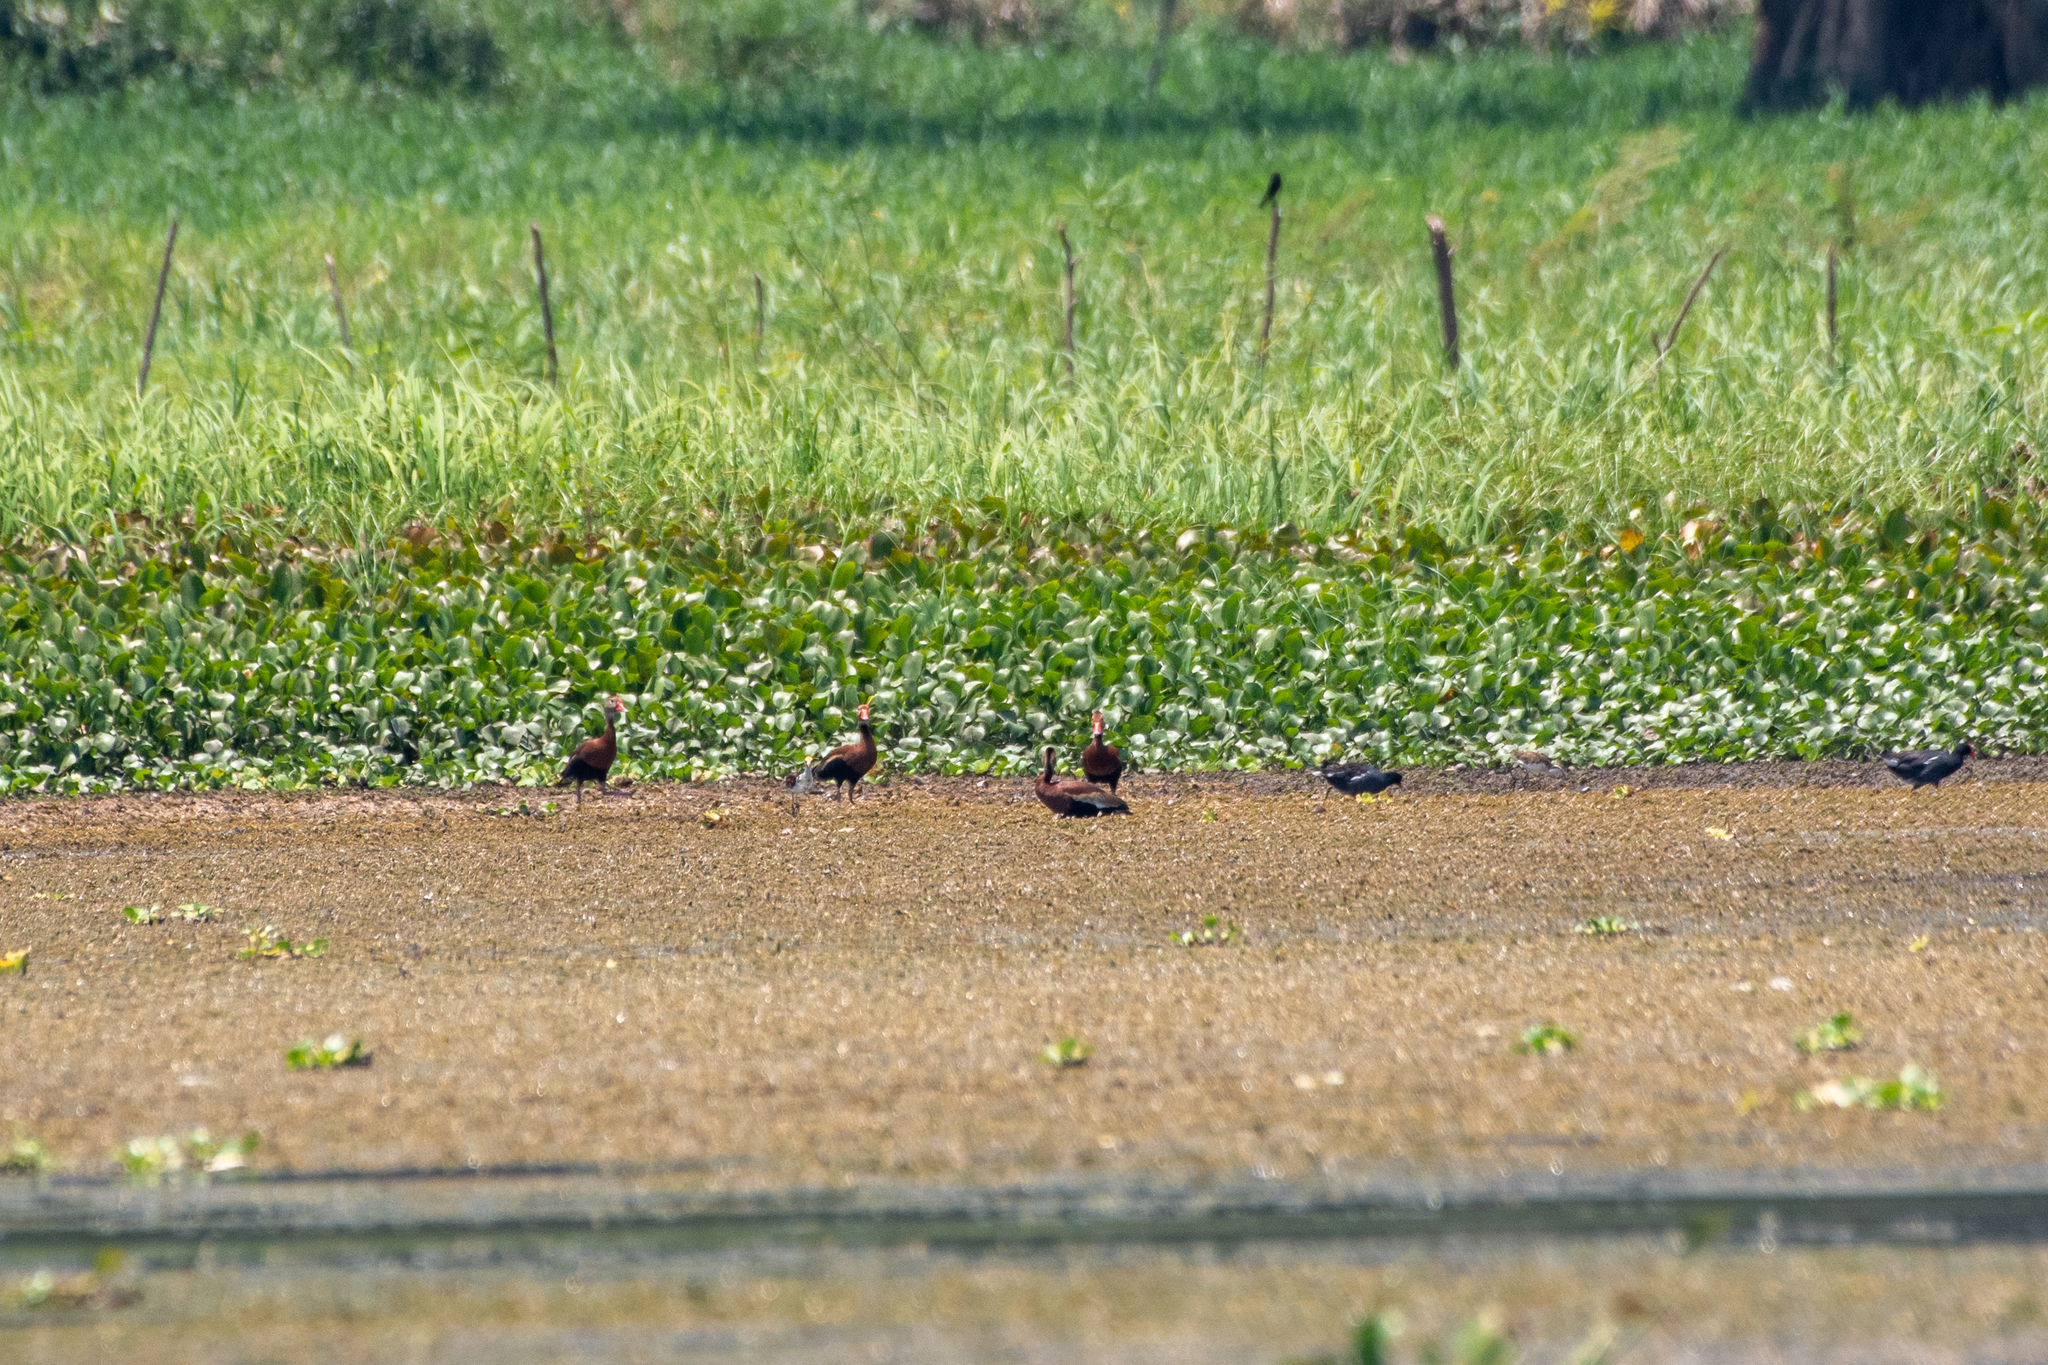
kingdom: Animalia
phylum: Chordata
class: Aves
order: Anseriformes
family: Anatidae
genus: Dendrocygna
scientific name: Dendrocygna autumnalis
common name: Black-bellied whistling duck
